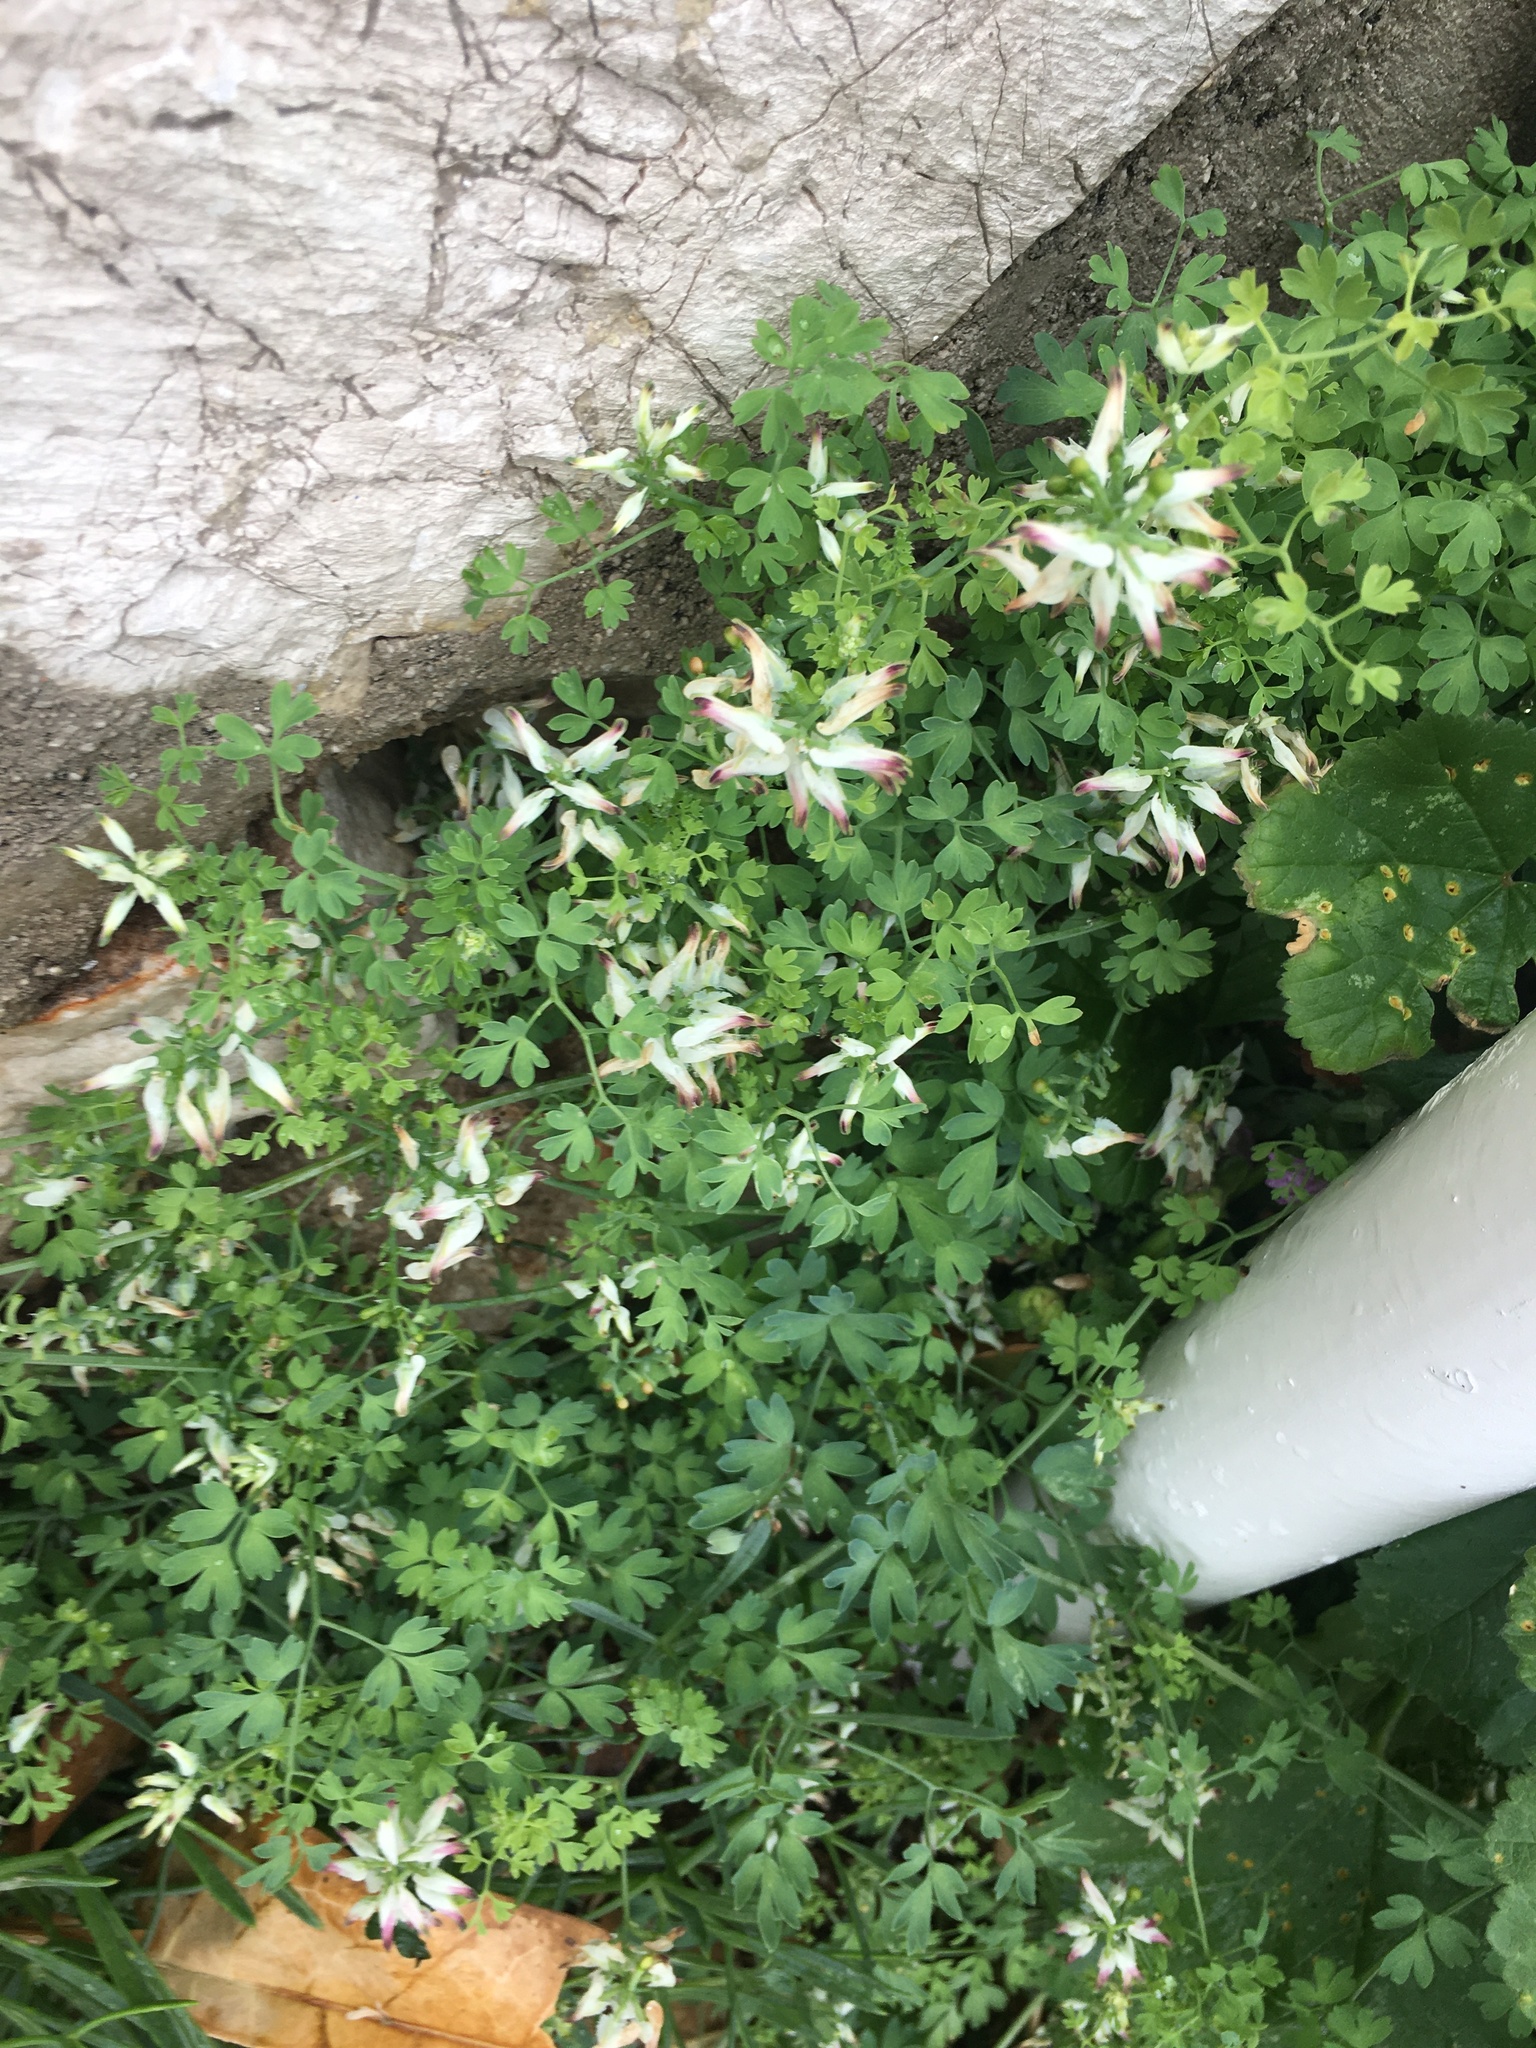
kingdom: Plantae
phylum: Tracheophyta
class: Magnoliopsida
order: Ranunculales
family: Papaveraceae
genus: Fumaria
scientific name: Fumaria capreolata
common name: White ramping-fumitory
